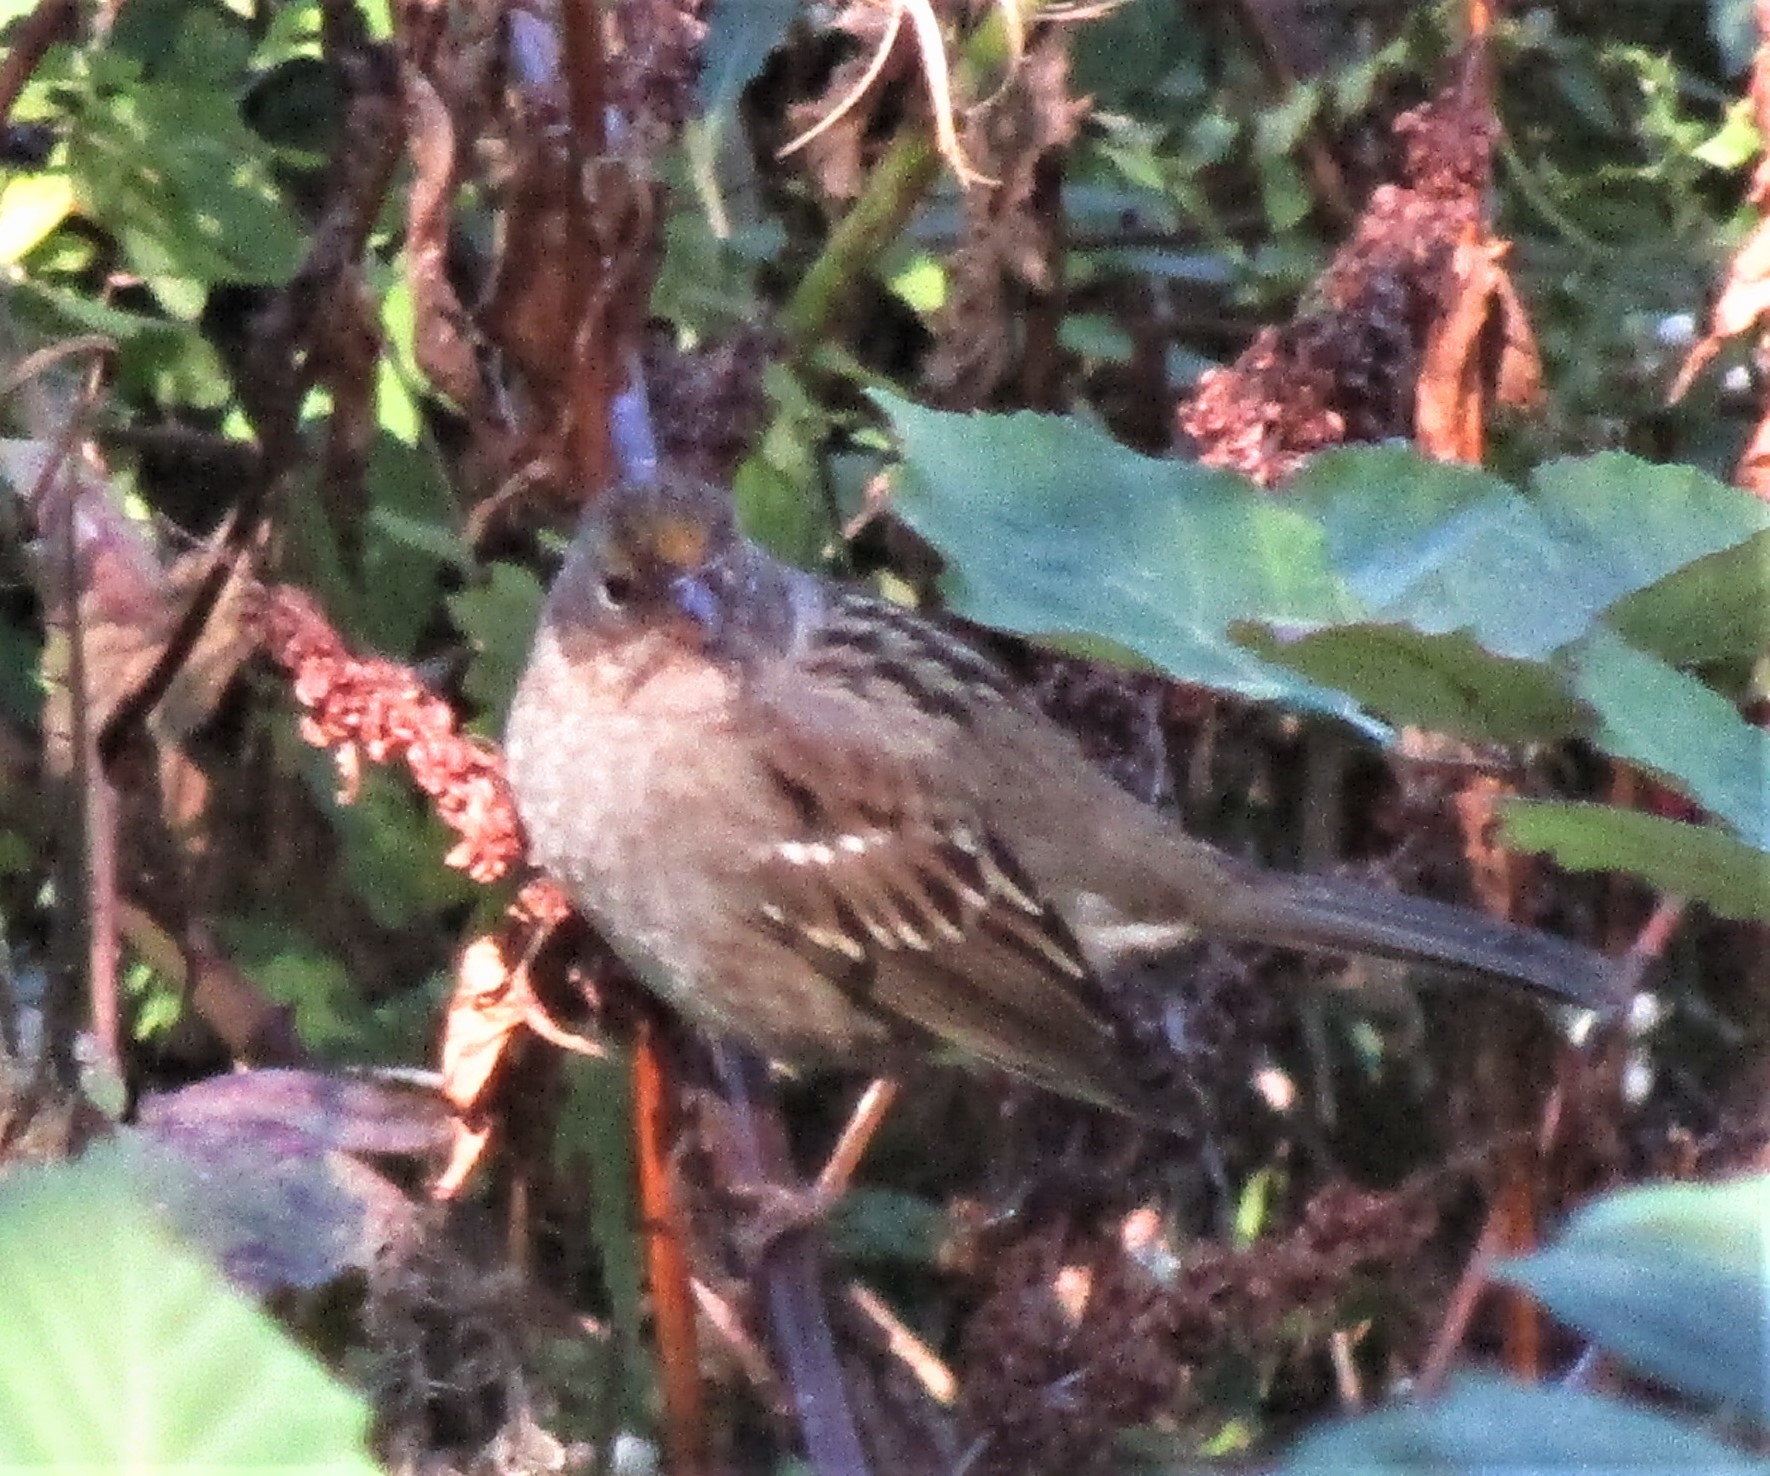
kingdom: Animalia
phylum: Chordata
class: Aves
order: Passeriformes
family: Passerellidae
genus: Zonotrichia
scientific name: Zonotrichia atricapilla
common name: Golden-crowned sparrow
